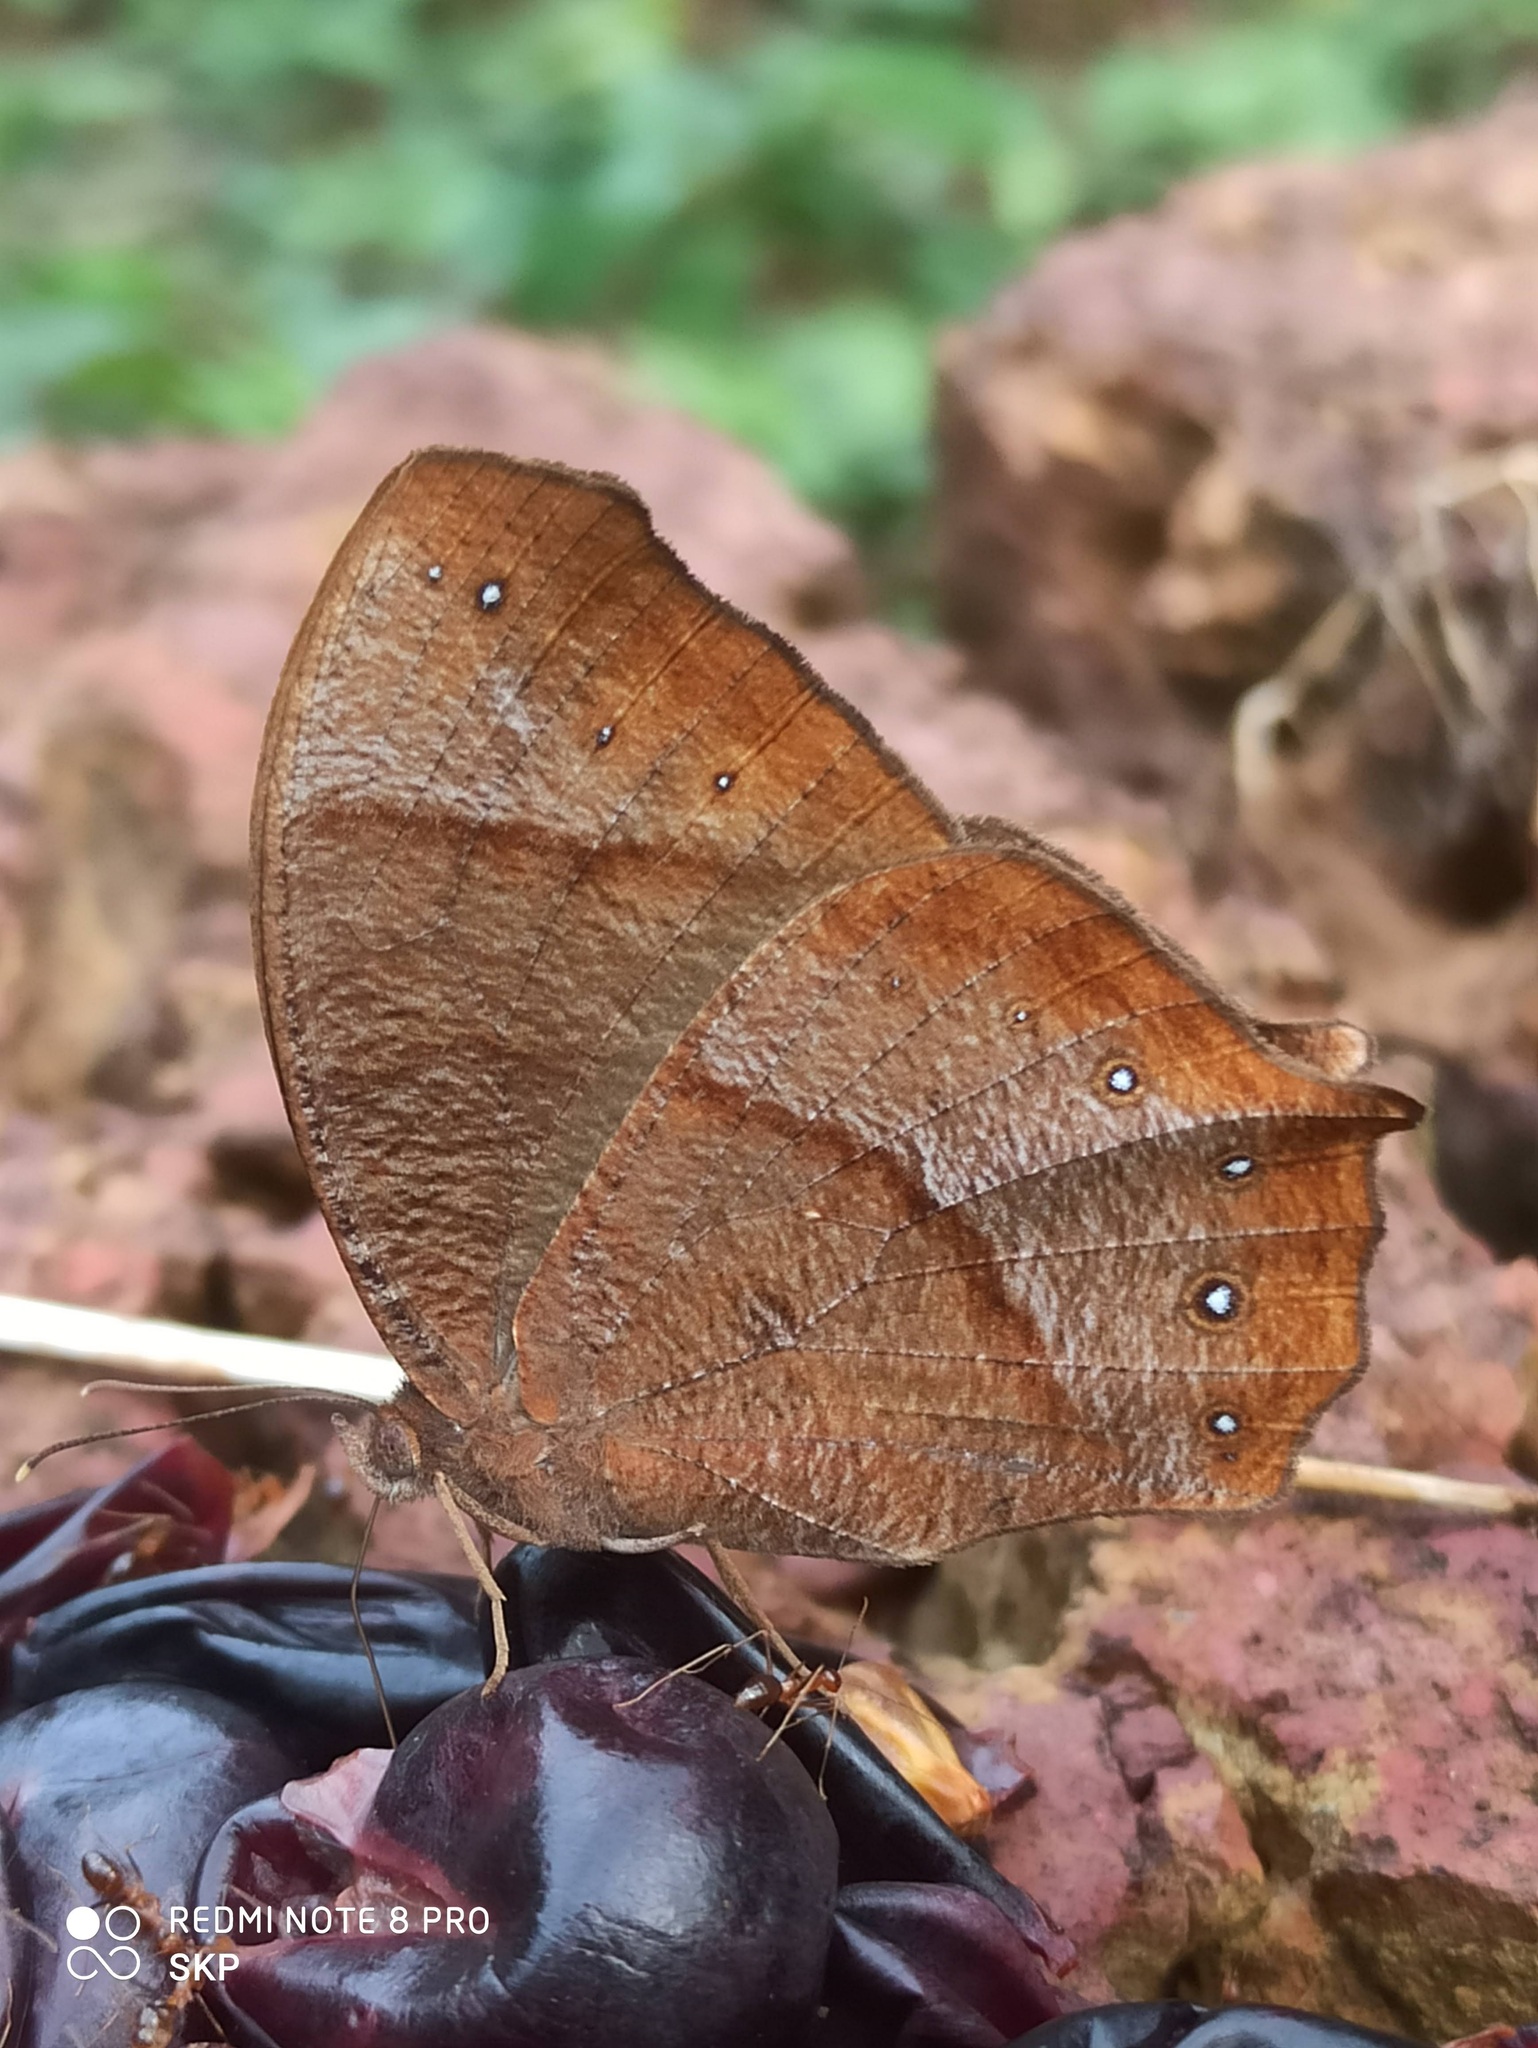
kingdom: Animalia
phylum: Arthropoda
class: Insecta
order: Lepidoptera
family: Nymphalidae
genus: Melanitis
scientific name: Melanitis phedima
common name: Dark evening brown
